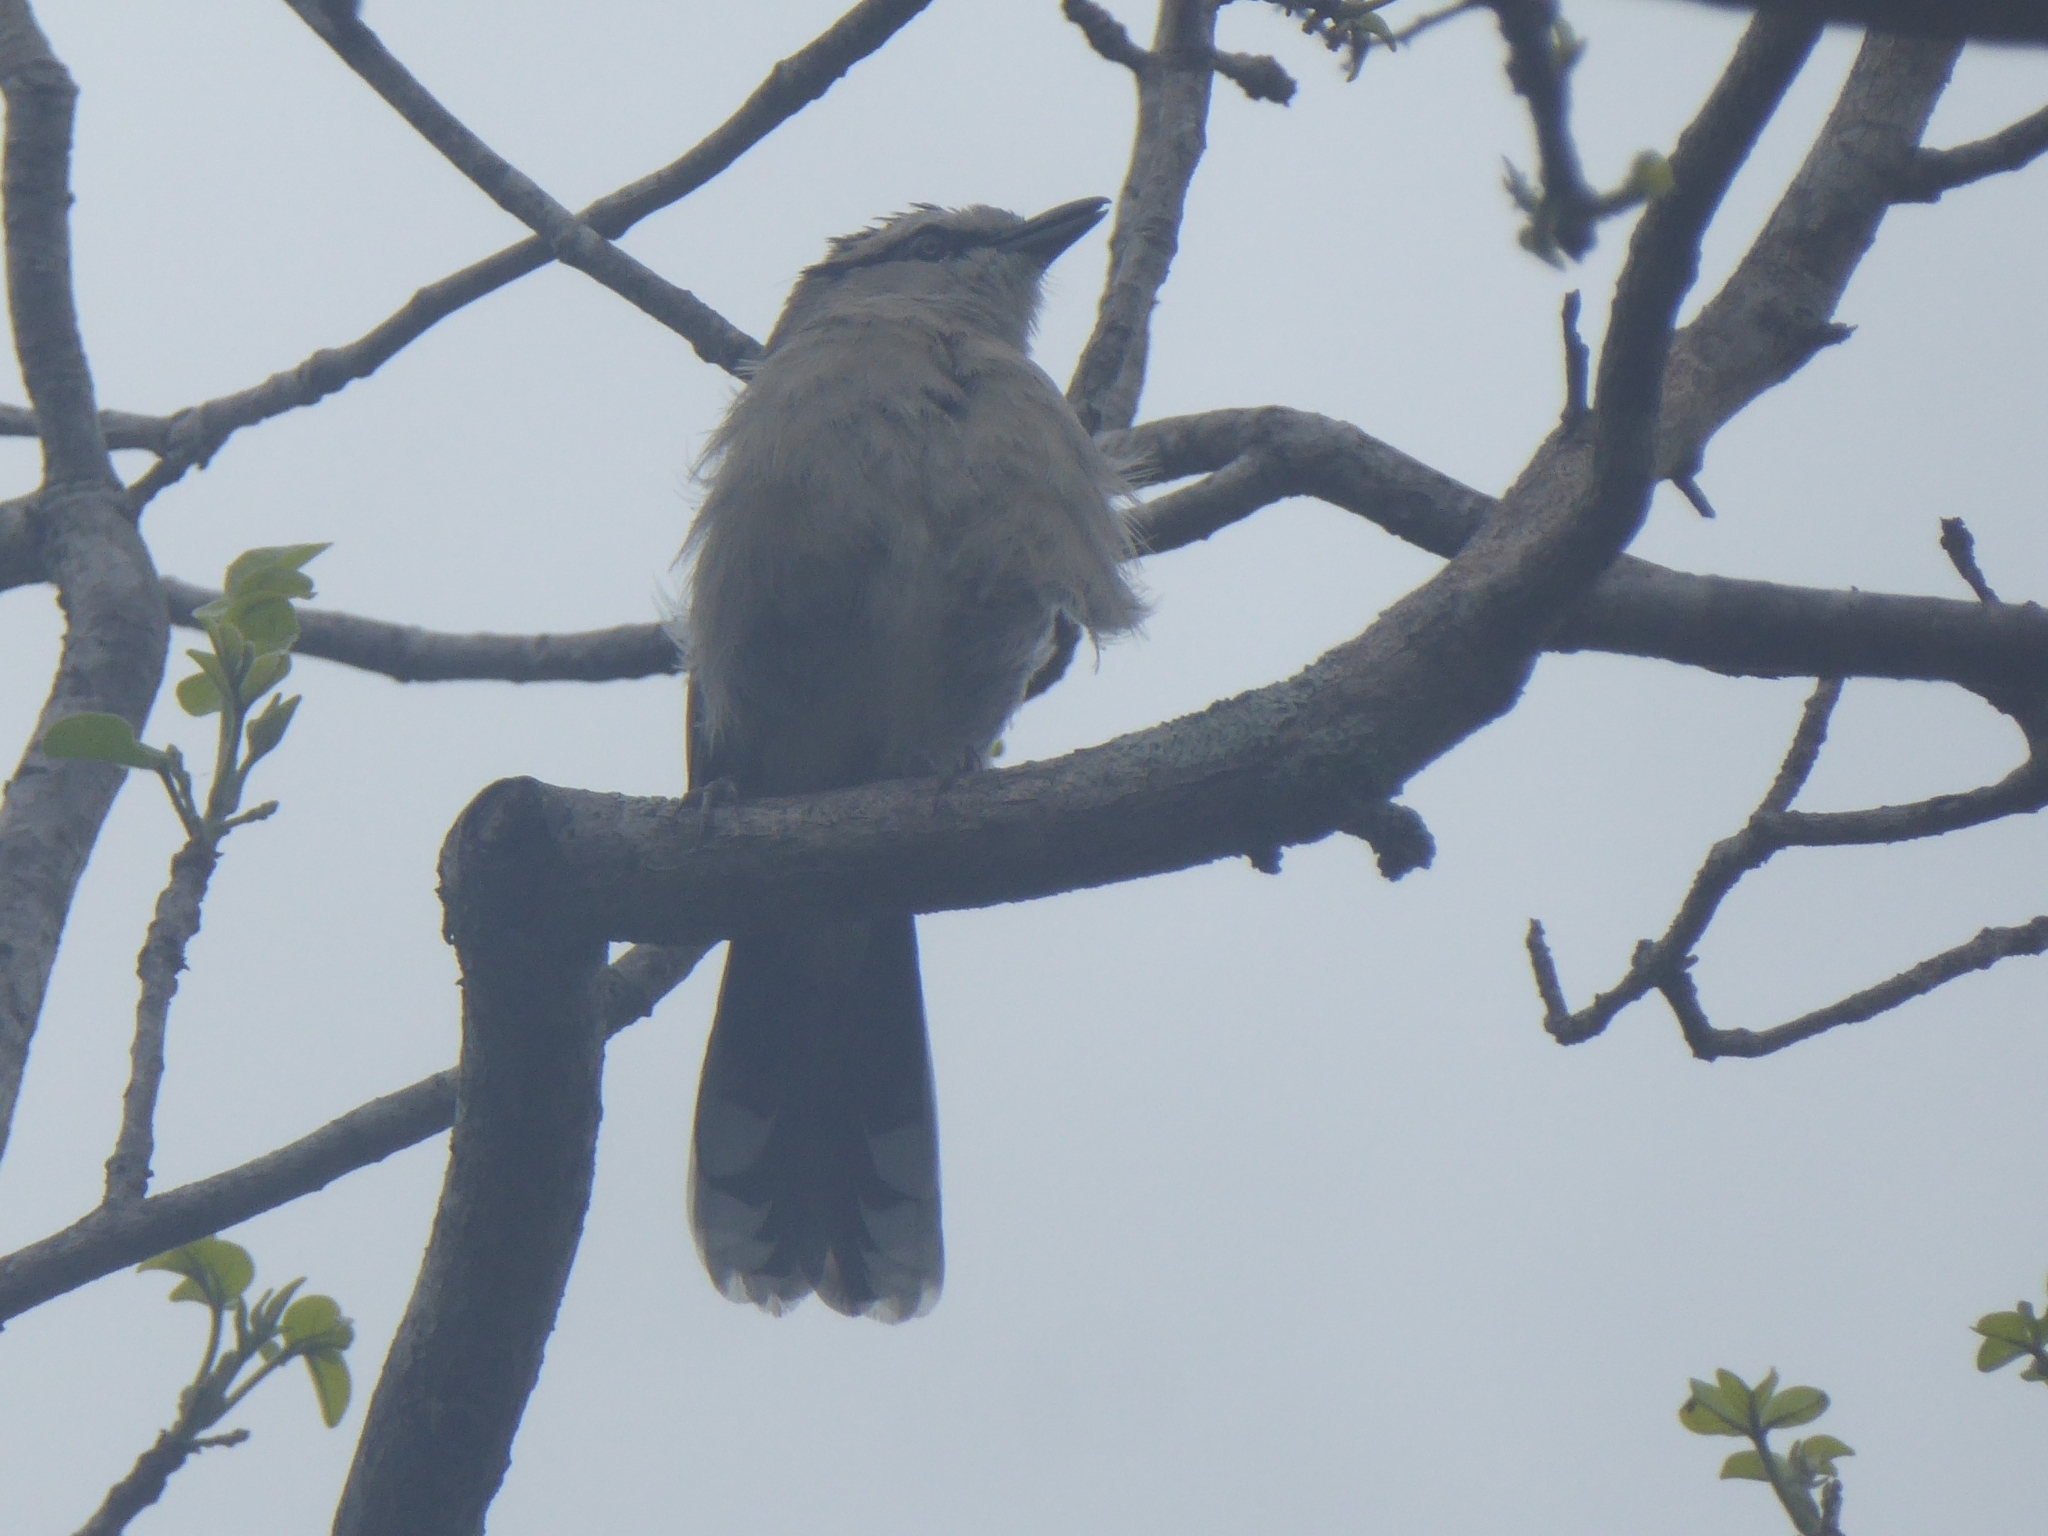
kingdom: Animalia
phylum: Chordata
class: Aves
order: Passeriformes
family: Malaconotidae
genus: Tchagra
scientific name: Tchagra australis
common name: Brown-crowned tchagra
